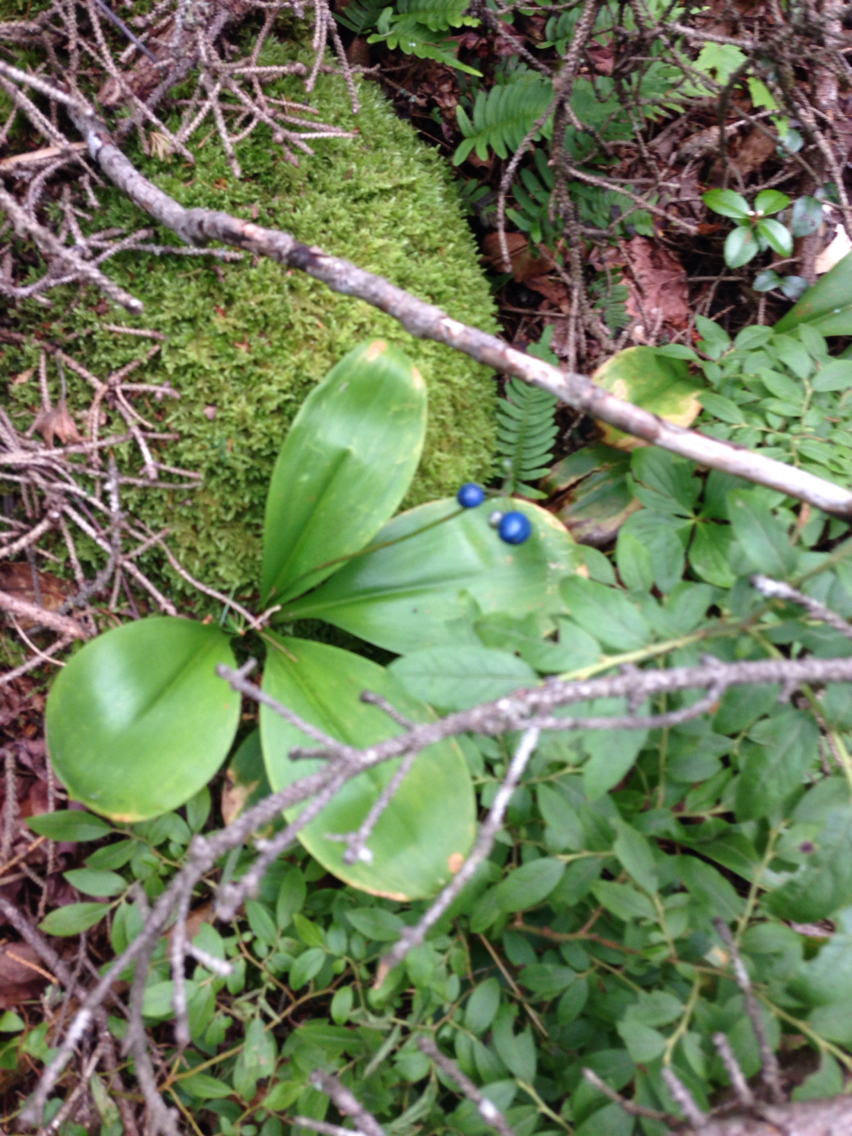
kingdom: Plantae
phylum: Tracheophyta
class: Liliopsida
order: Liliales
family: Liliaceae
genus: Clintonia
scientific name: Clintonia borealis
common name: Yellow clintonia
